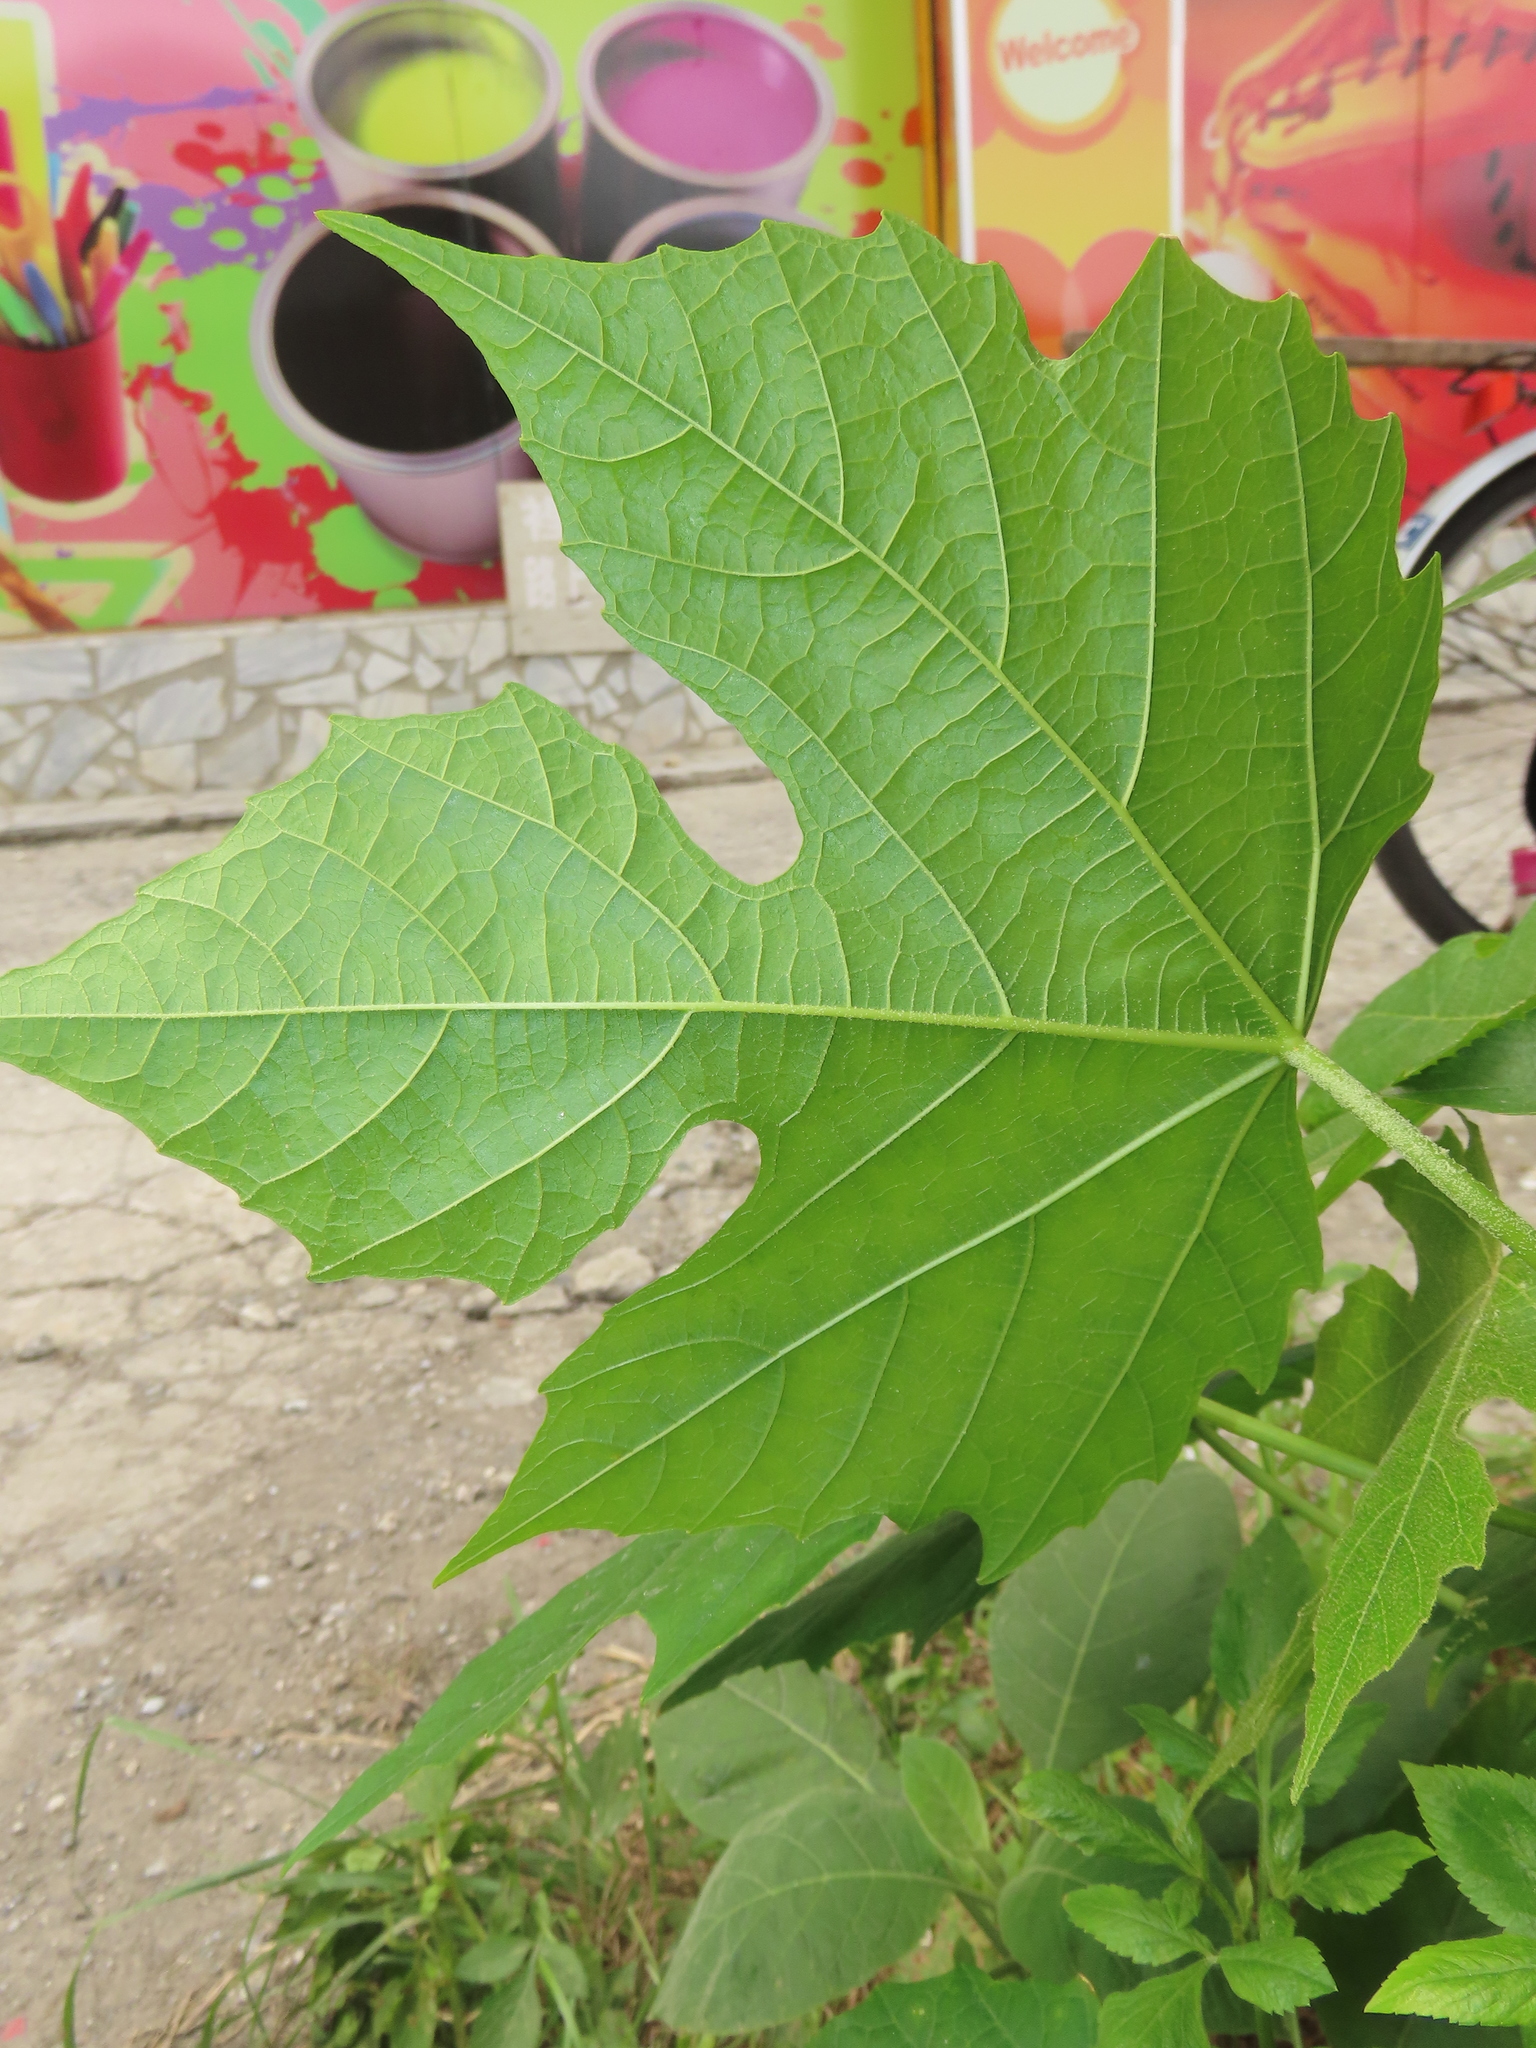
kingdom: Plantae
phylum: Tracheophyta
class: Magnoliopsida
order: Malpighiales
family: Euphorbiaceae
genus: Melanolepis
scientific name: Melanolepis multiglandulosa
